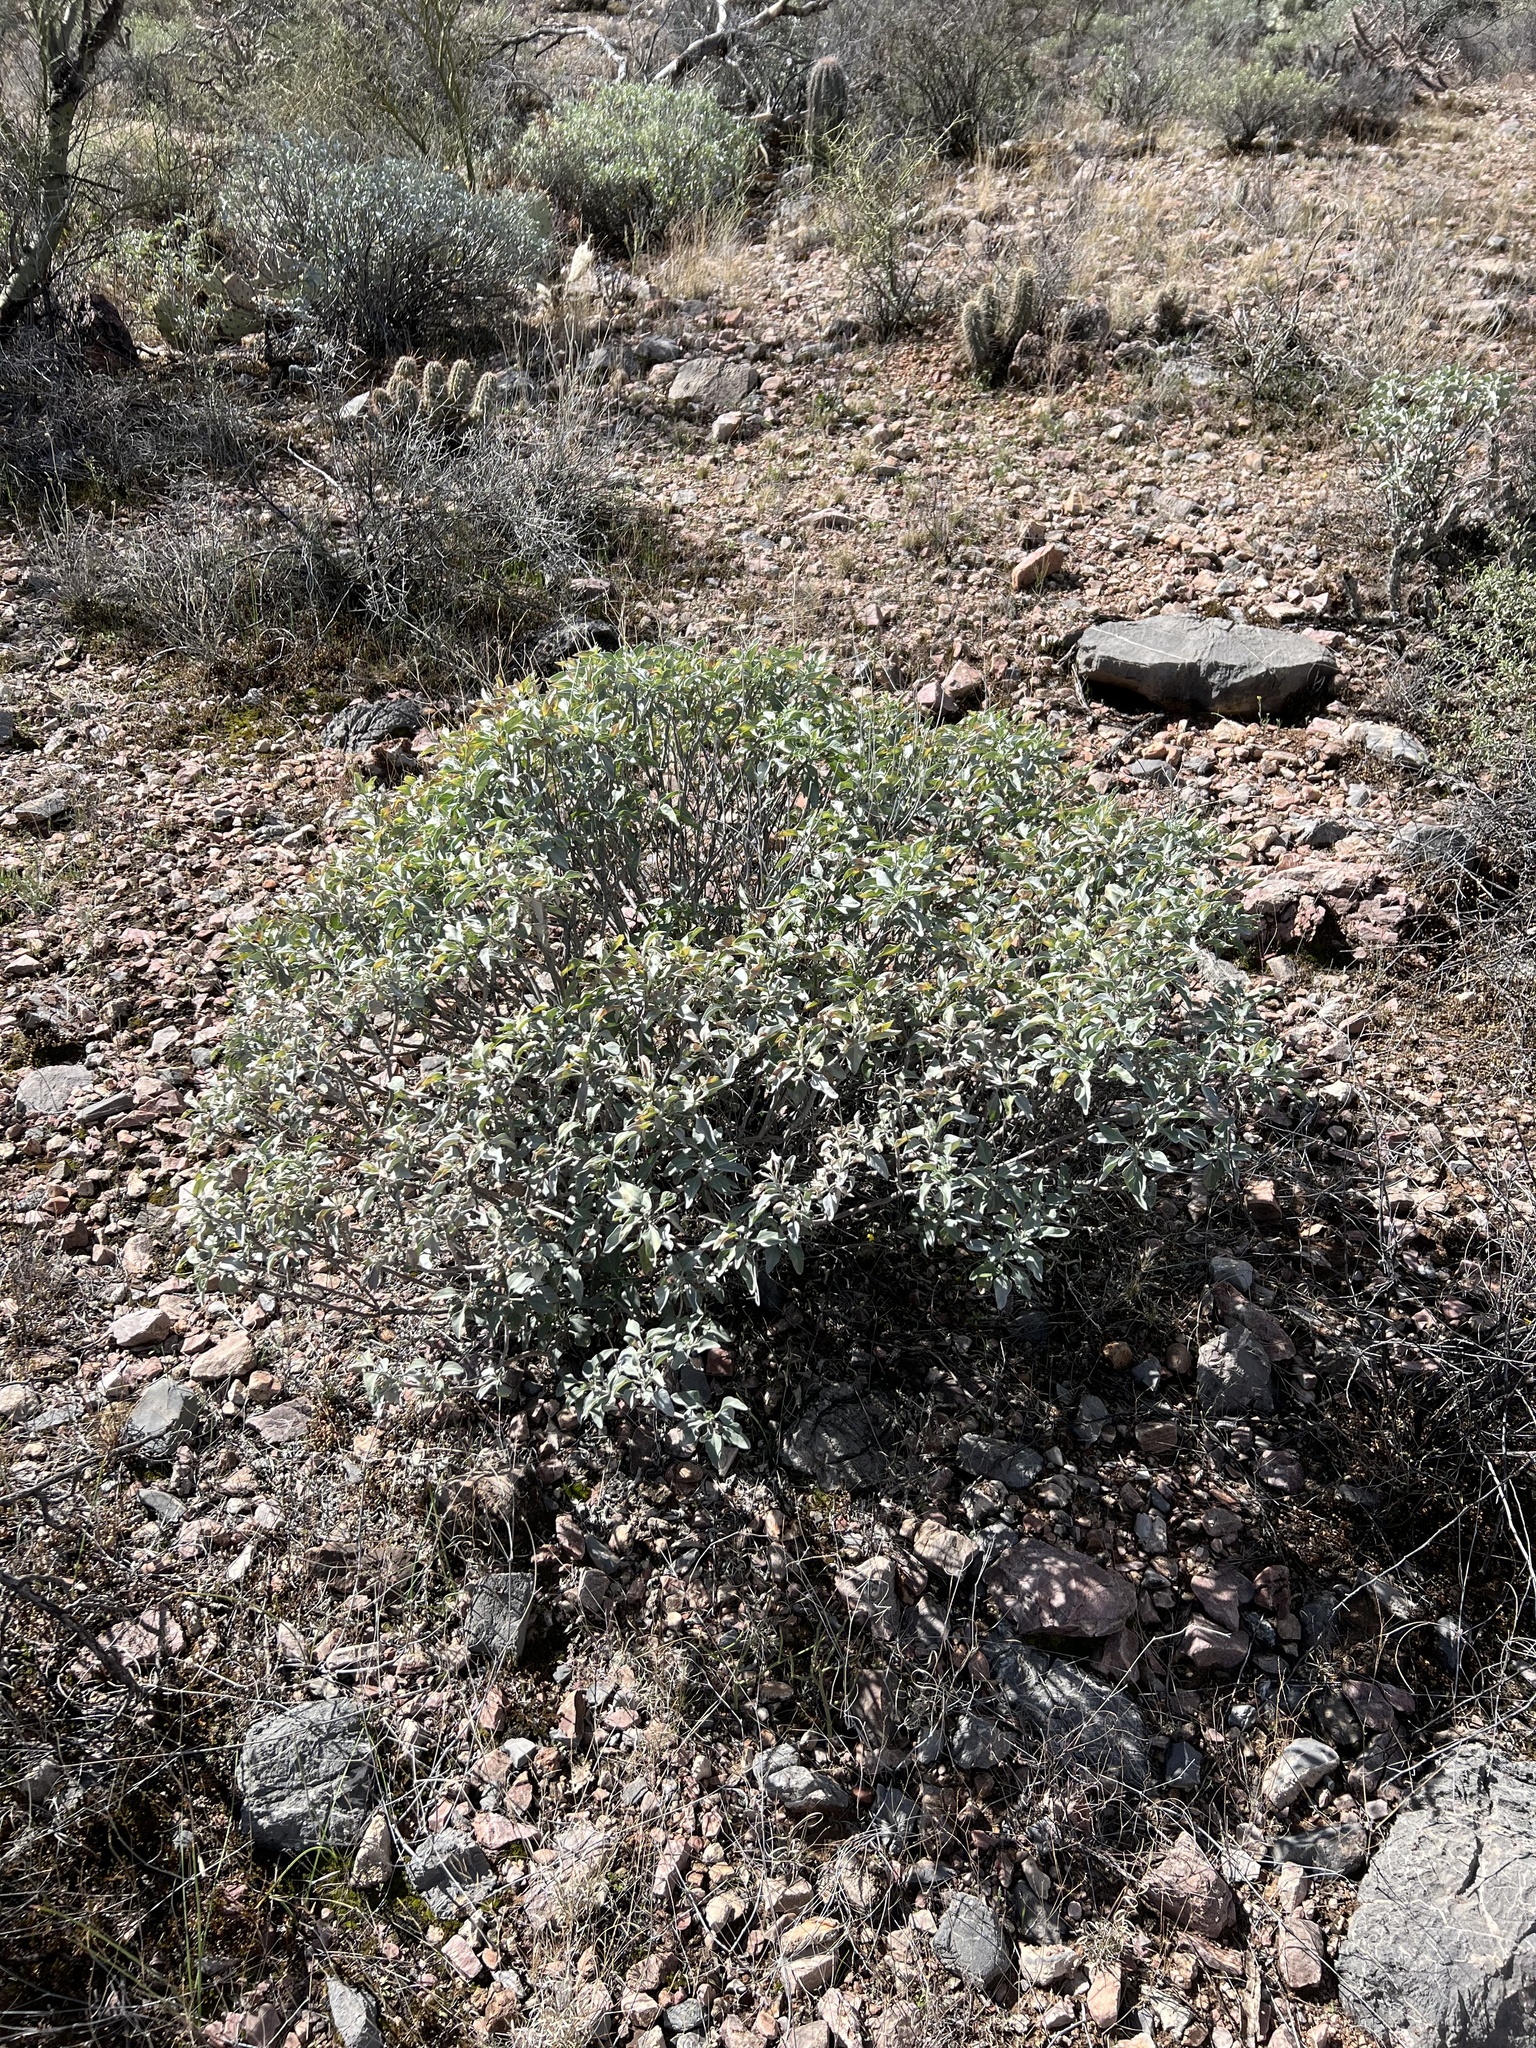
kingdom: Plantae
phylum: Tracheophyta
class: Magnoliopsida
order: Asterales
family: Asteraceae
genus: Encelia
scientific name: Encelia farinosa
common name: Brittlebush
